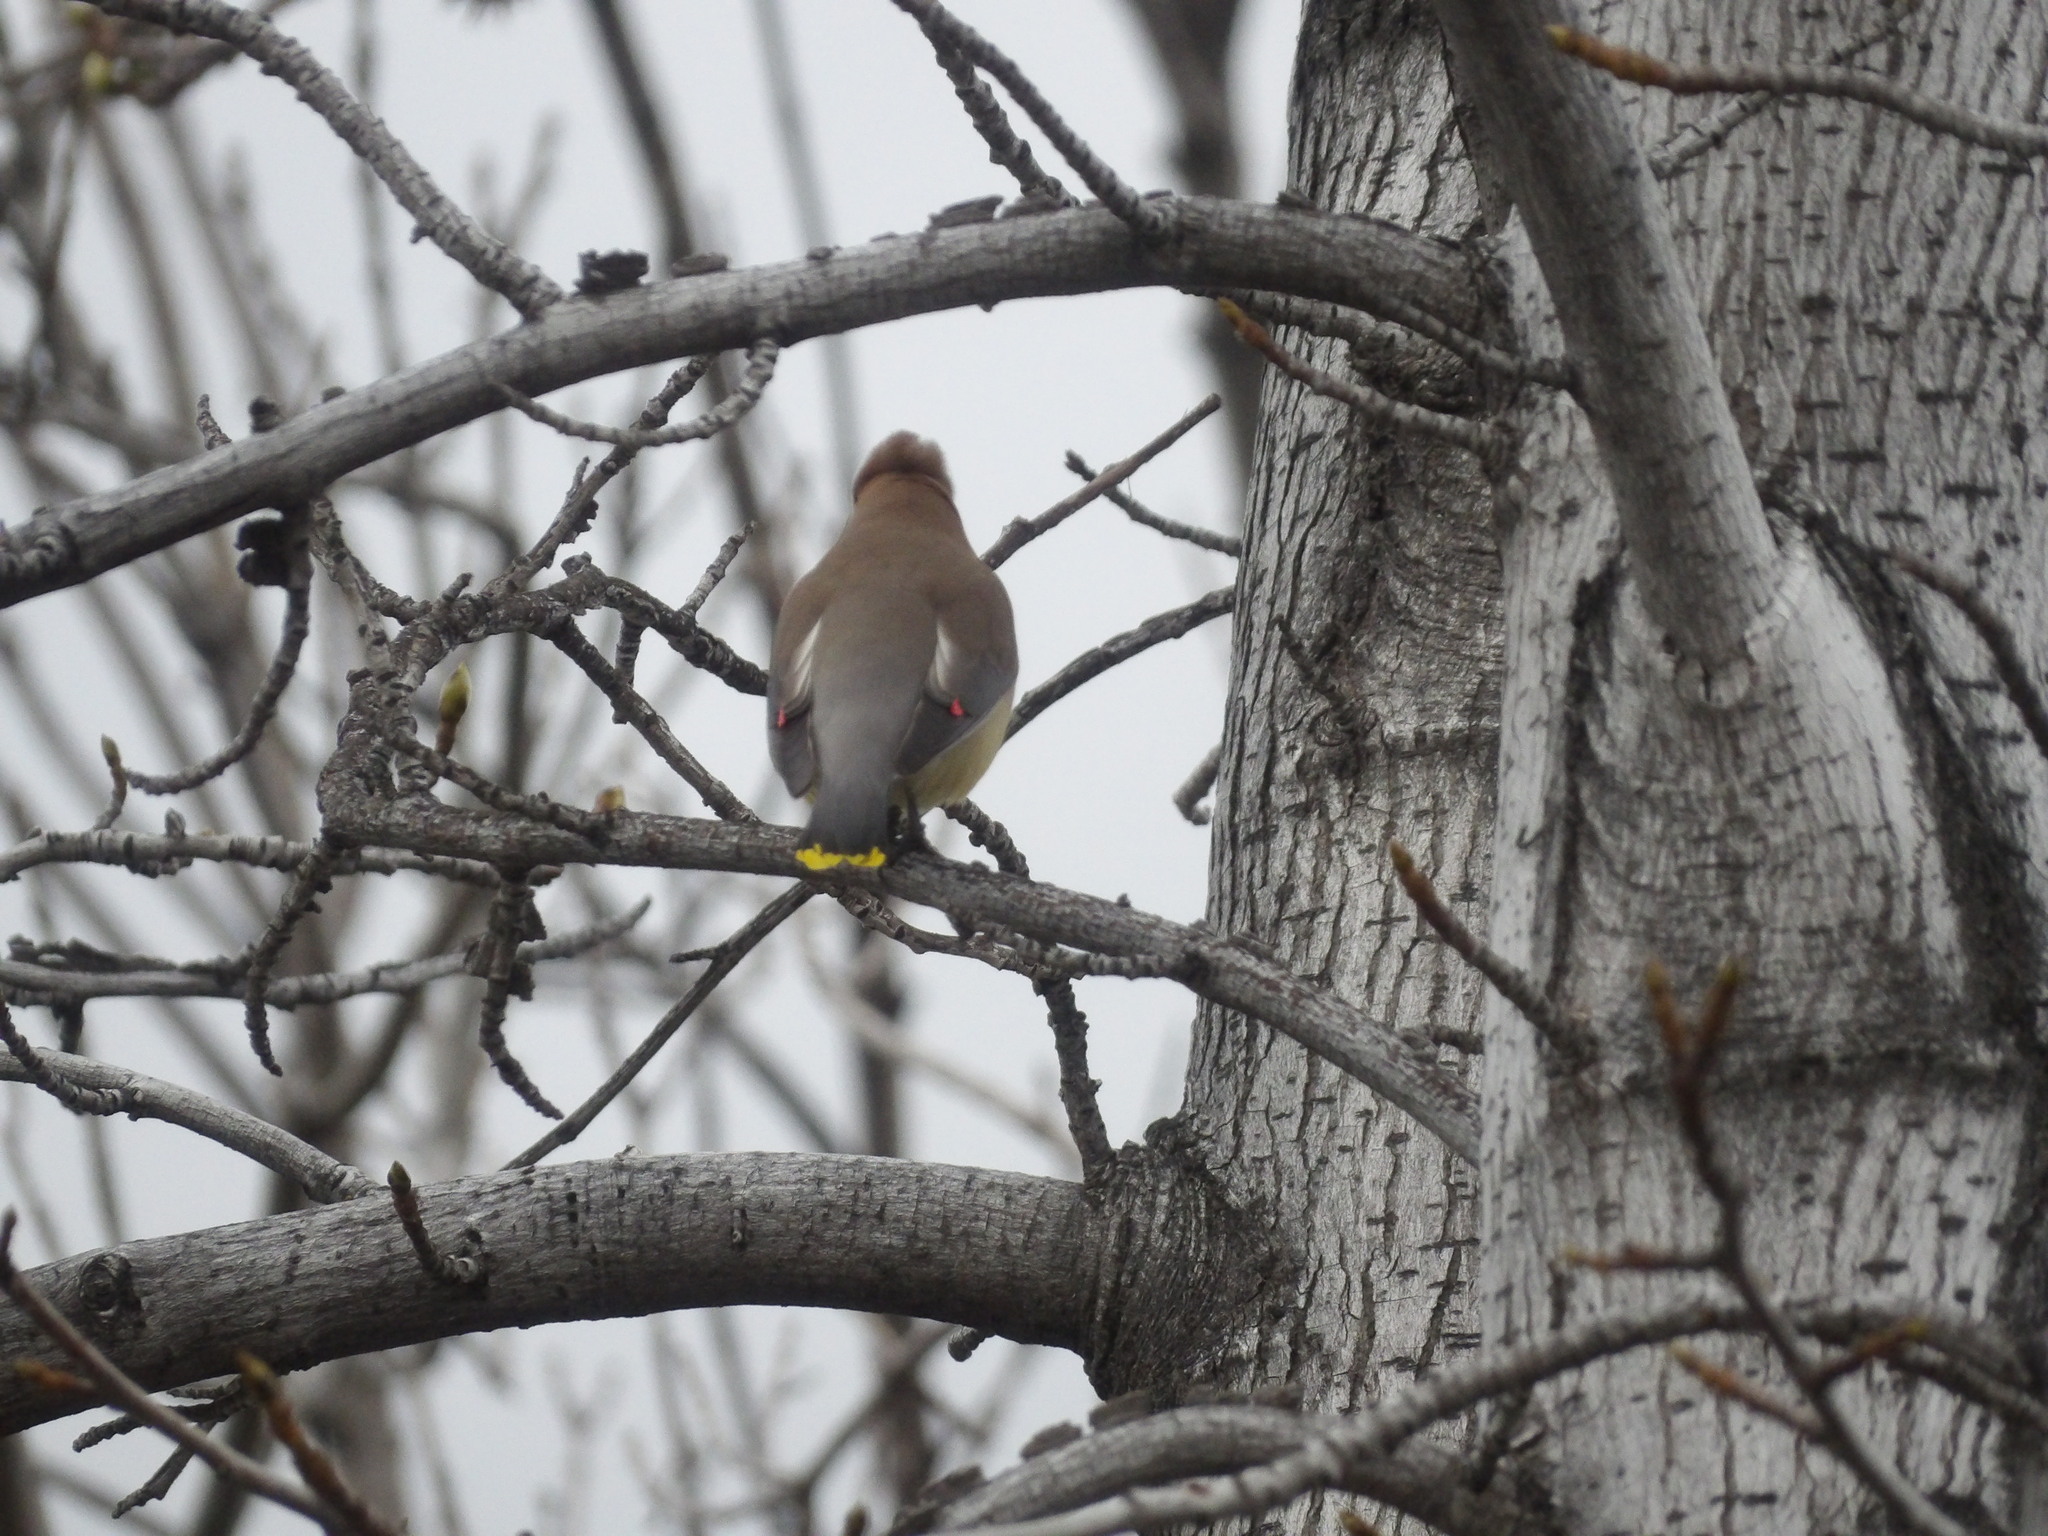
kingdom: Animalia
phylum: Chordata
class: Aves
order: Passeriformes
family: Bombycillidae
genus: Bombycilla
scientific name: Bombycilla cedrorum
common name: Cedar waxwing
